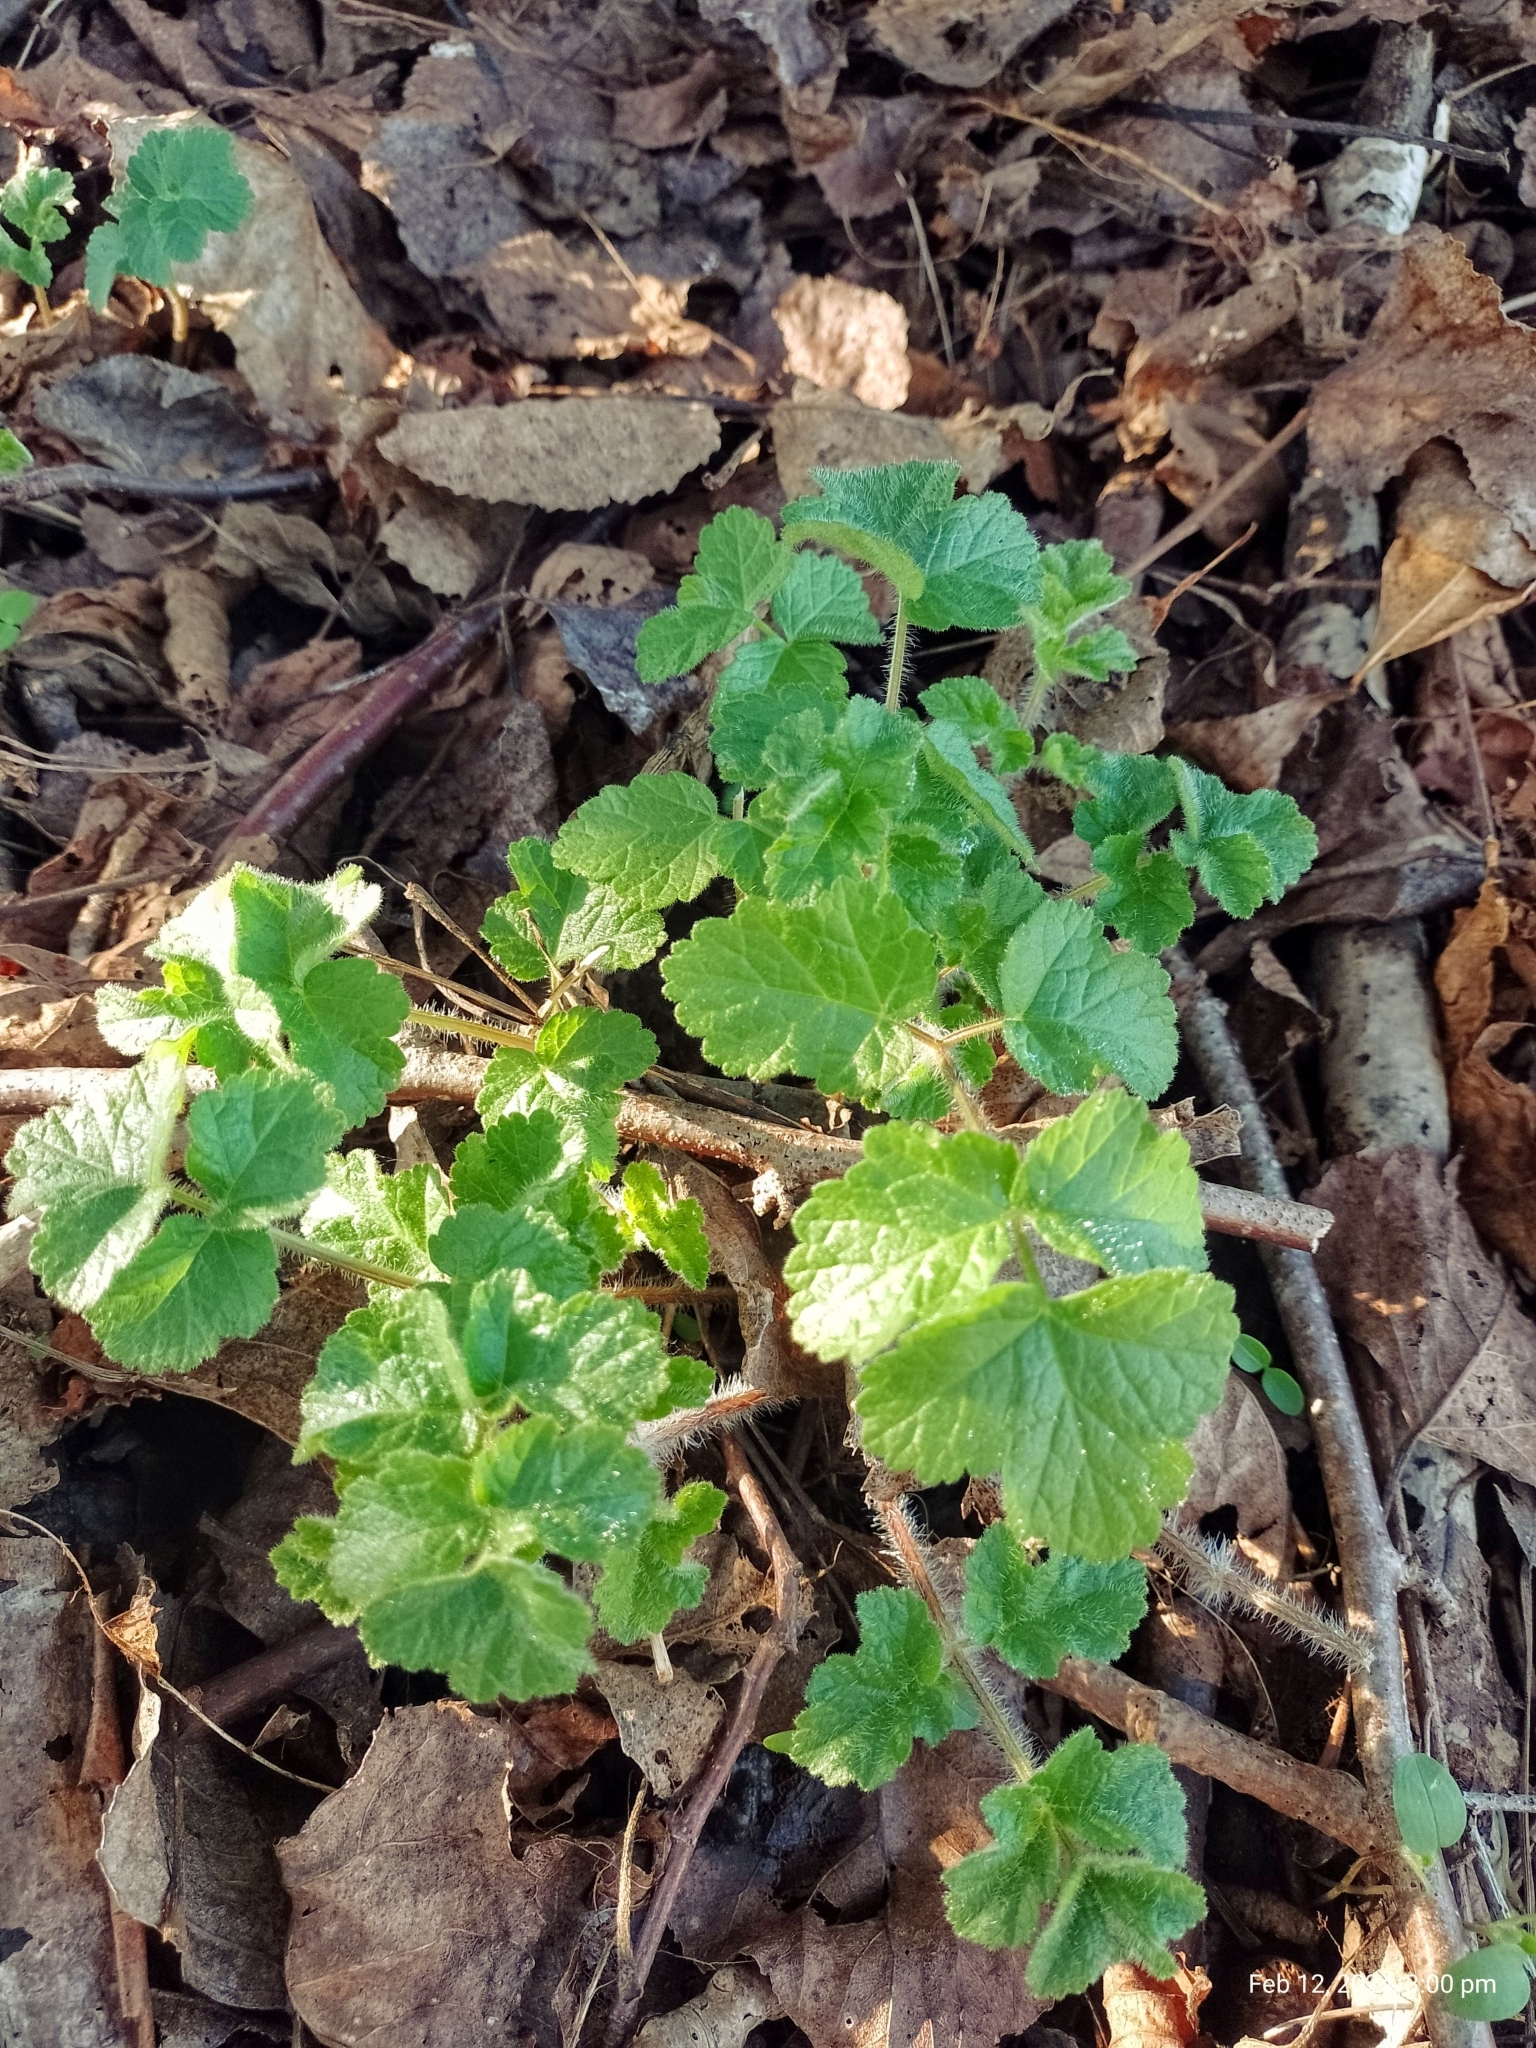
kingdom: Plantae
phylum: Tracheophyta
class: Magnoliopsida
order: Apiales
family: Apiaceae
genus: Heracleum
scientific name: Heracleum sphondylium
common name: Hogweed
